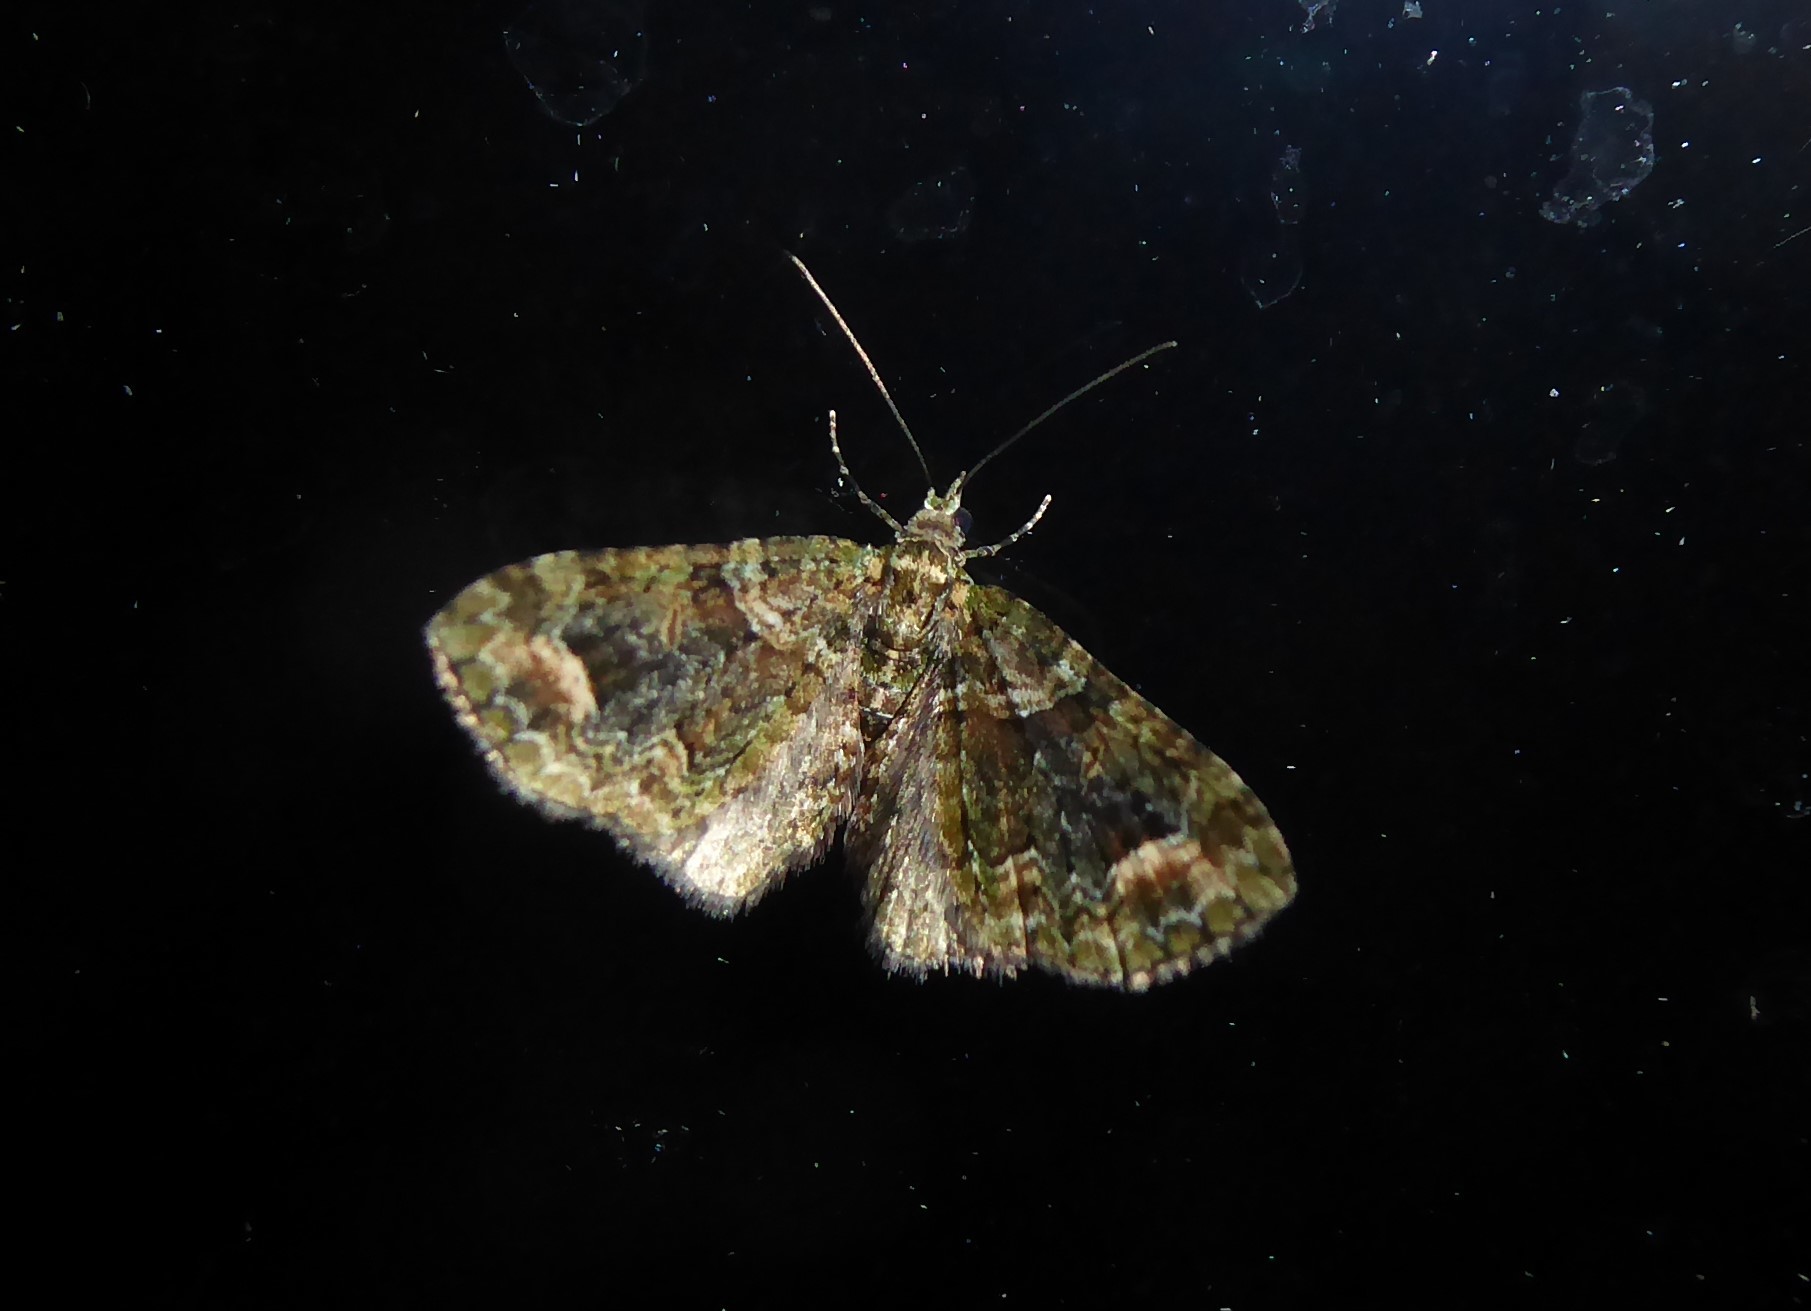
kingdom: Animalia
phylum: Arthropoda
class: Insecta
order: Lepidoptera
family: Geometridae
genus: Idaea
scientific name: Idaea mutanda
